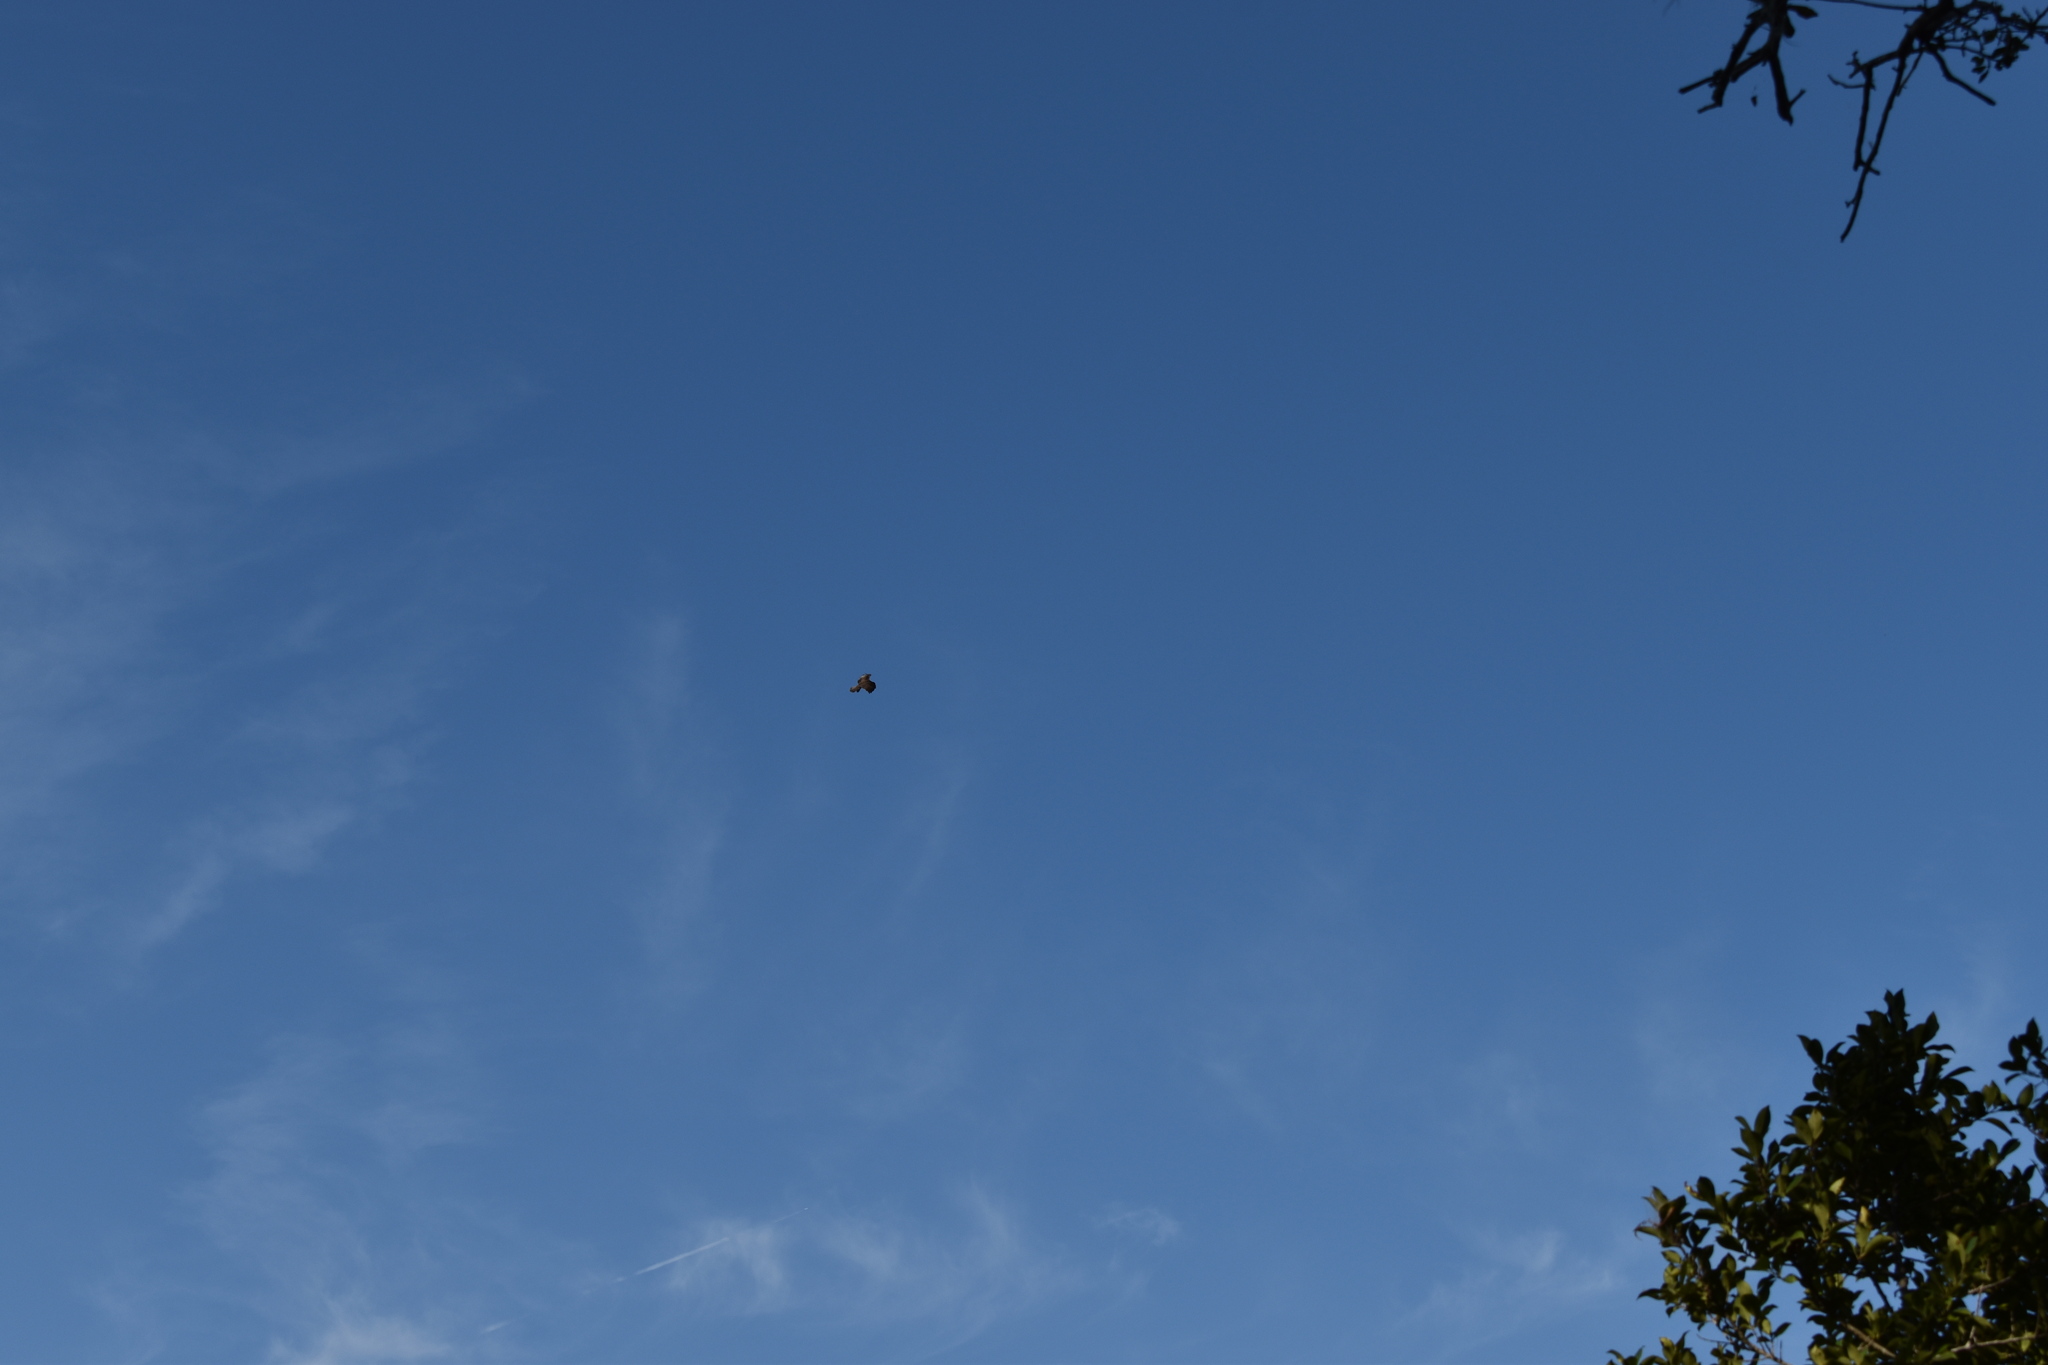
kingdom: Animalia
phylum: Chordata
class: Aves
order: Accipitriformes
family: Pandionidae
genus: Pandion
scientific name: Pandion haliaetus
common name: Osprey
